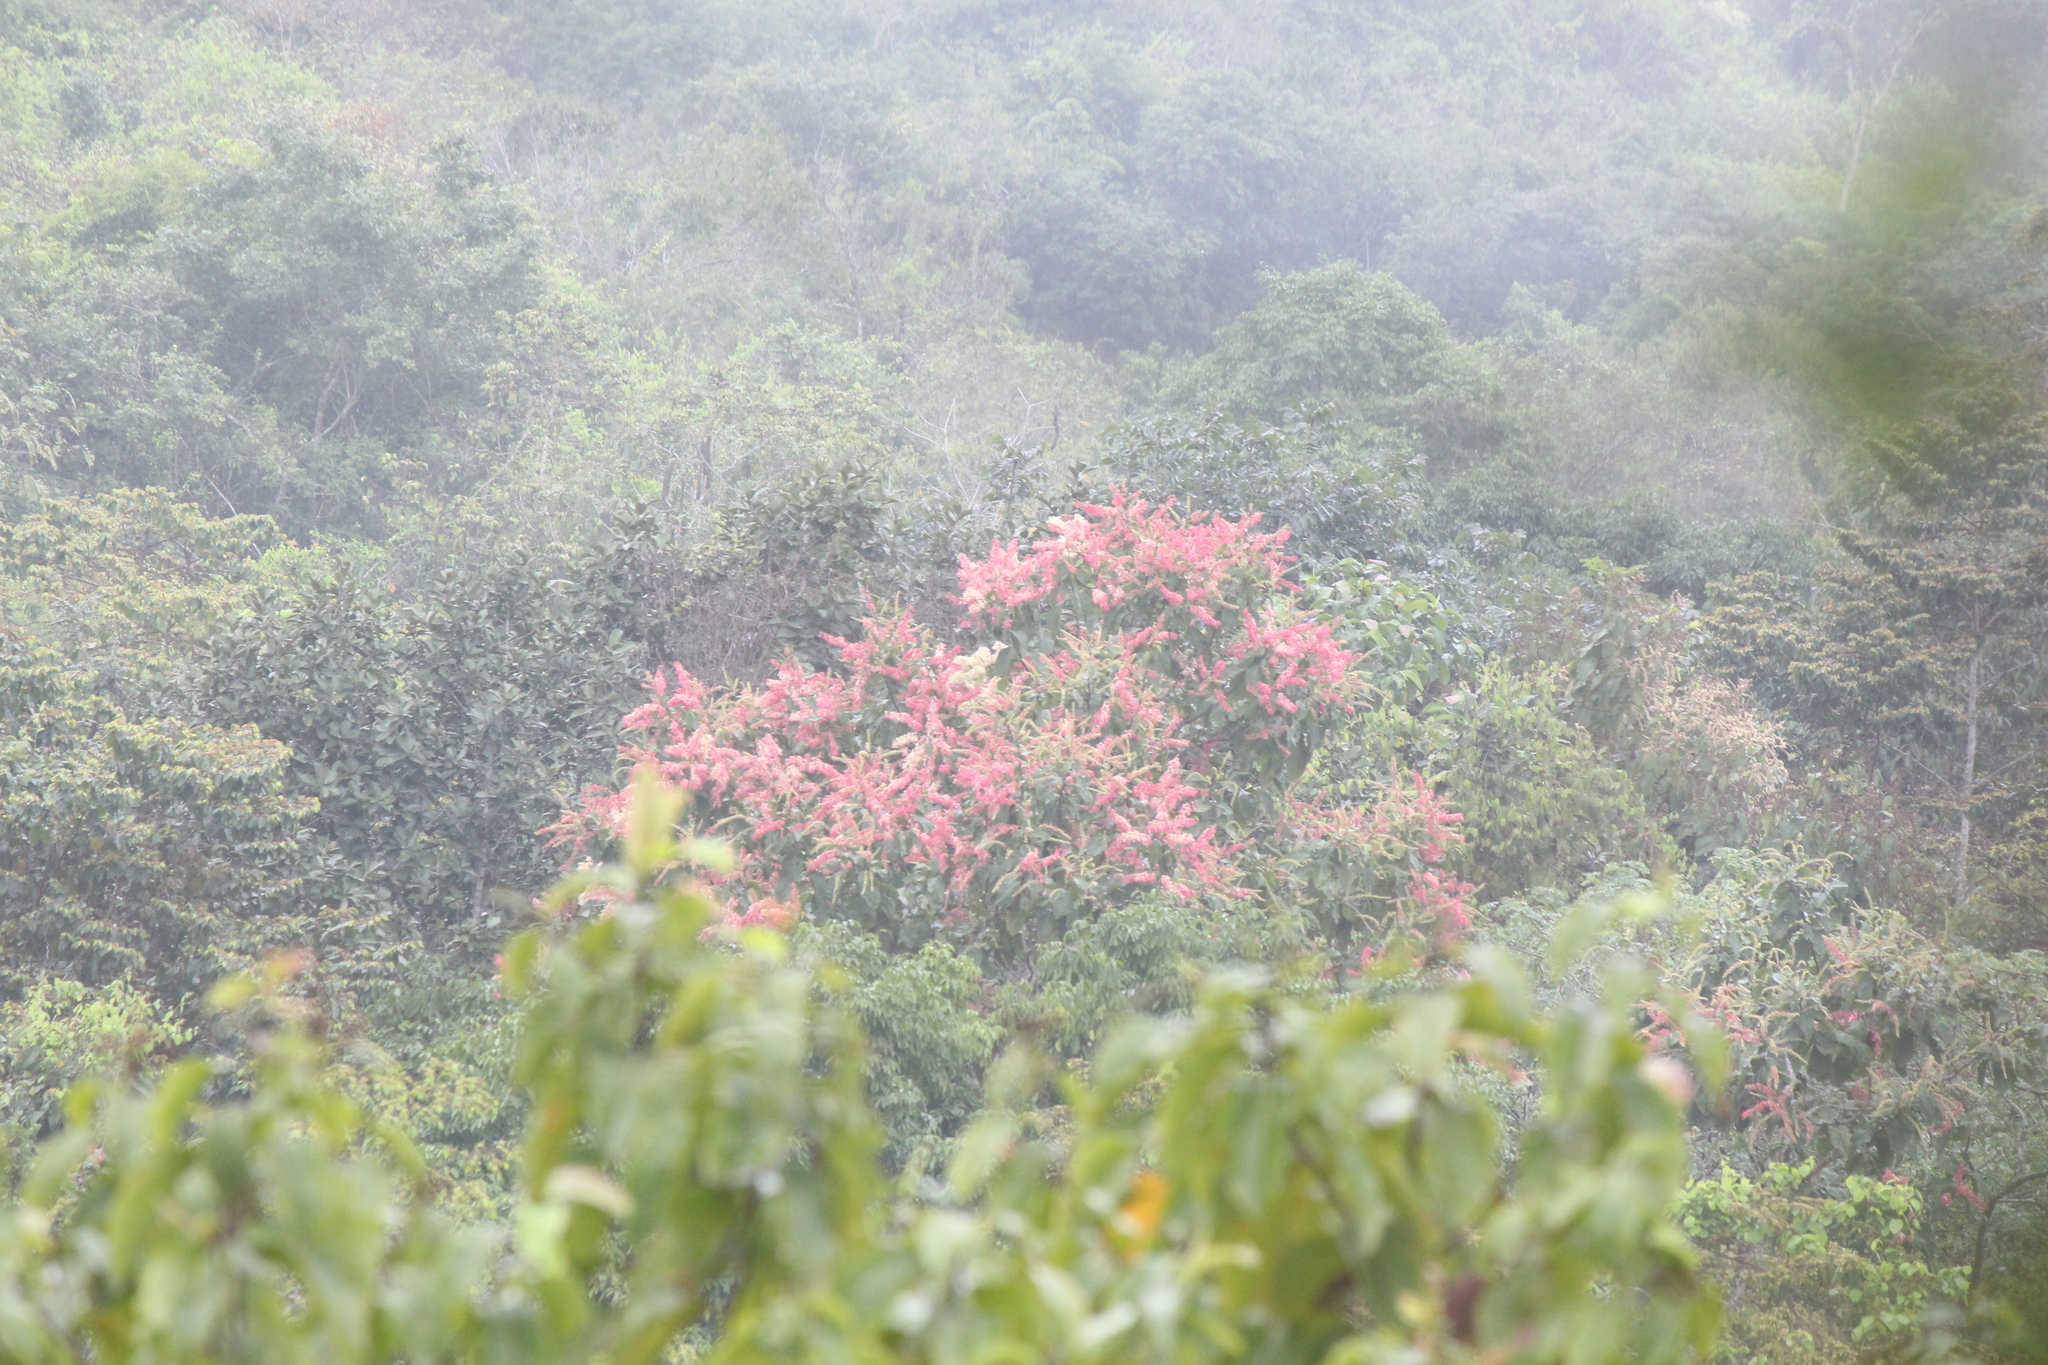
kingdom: Plantae
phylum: Tracheophyta
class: Magnoliopsida
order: Caryophyllales
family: Polygonaceae
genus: Triplaris
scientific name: Triplaris cumingiana
